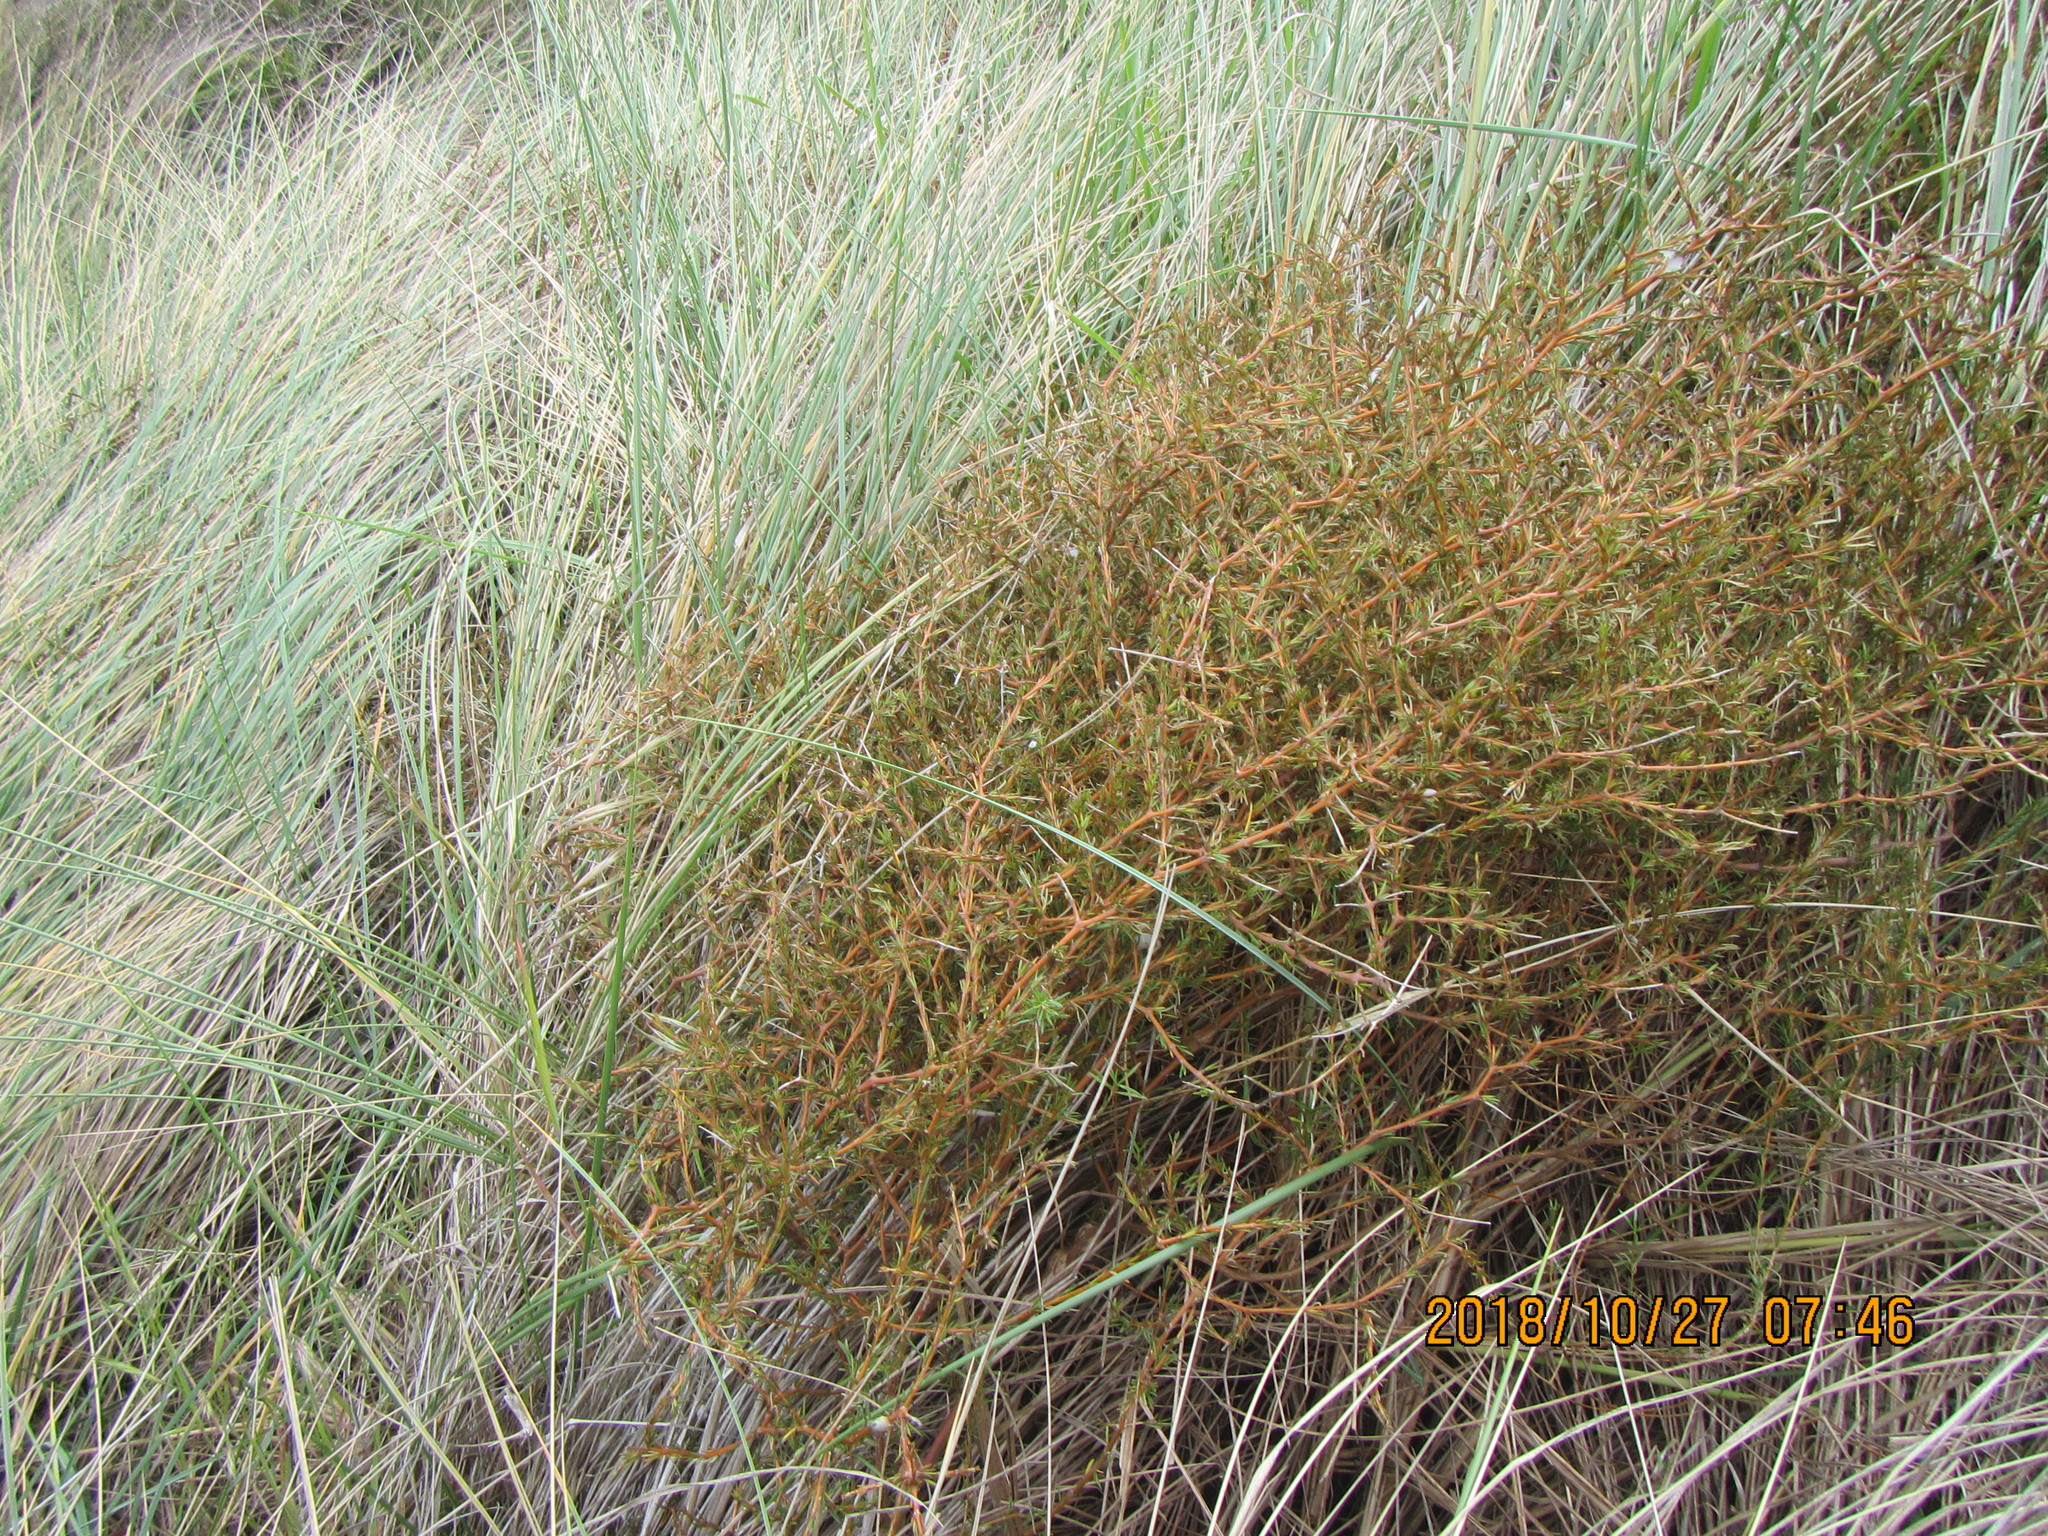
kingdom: Plantae
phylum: Tracheophyta
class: Magnoliopsida
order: Gentianales
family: Rubiaceae
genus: Coprosma
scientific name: Coprosma acerosa
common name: Sand coprosma
